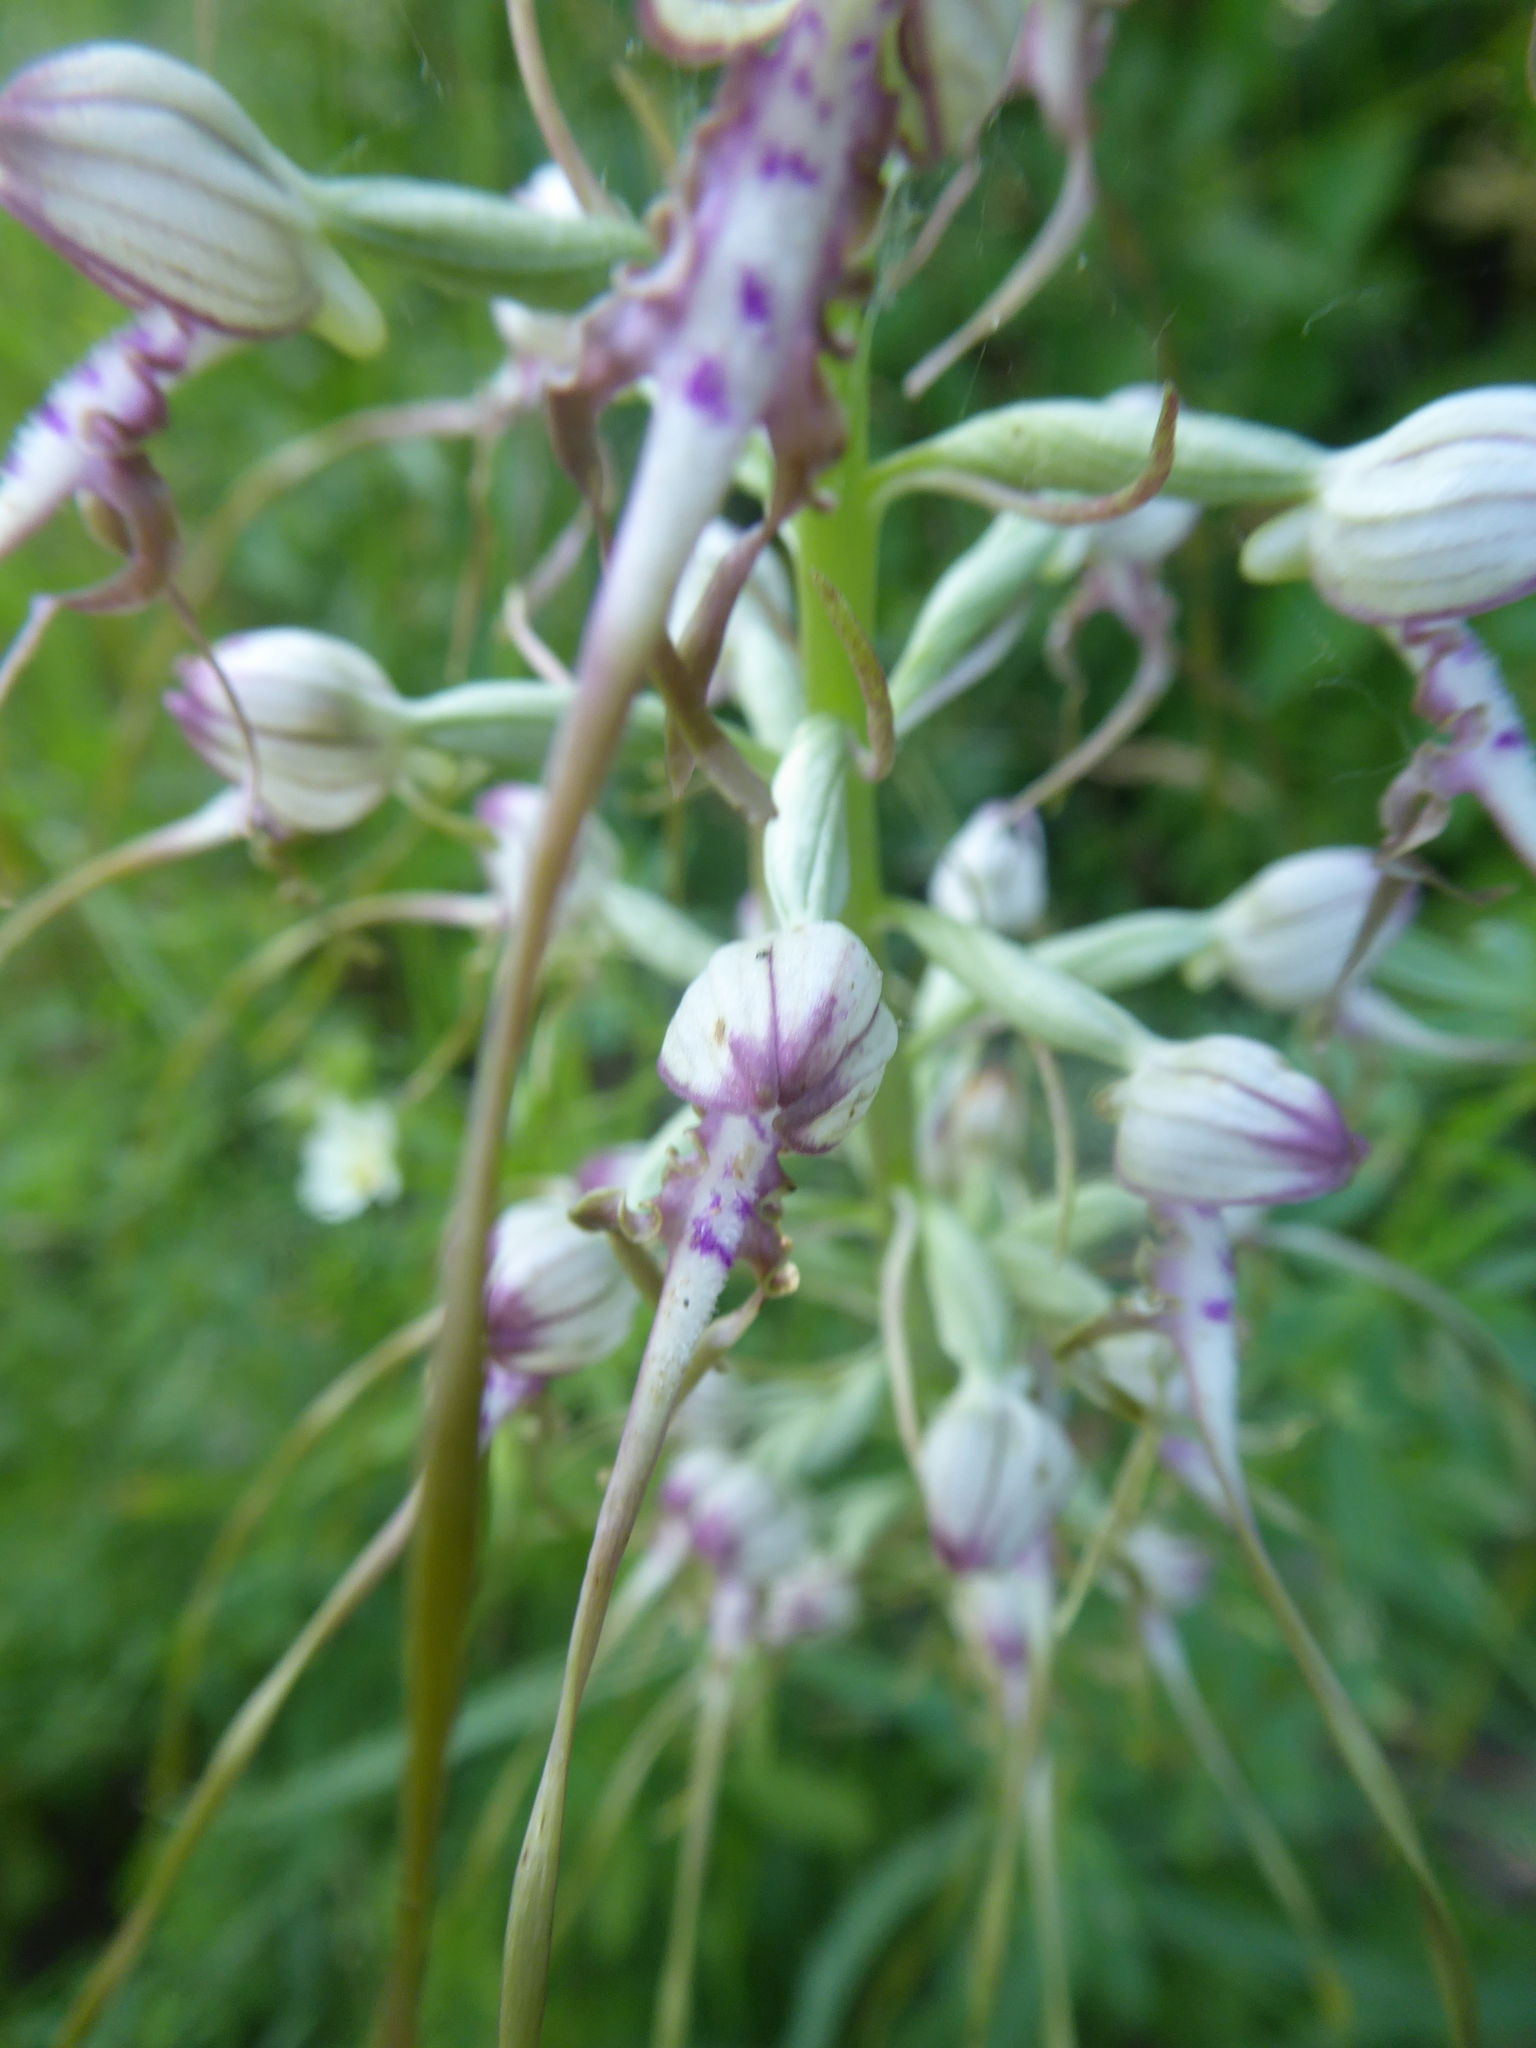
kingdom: Plantae
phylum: Tracheophyta
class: Liliopsida
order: Asparagales
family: Orchidaceae
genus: Himantoglossum
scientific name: Himantoglossum adriaticum
